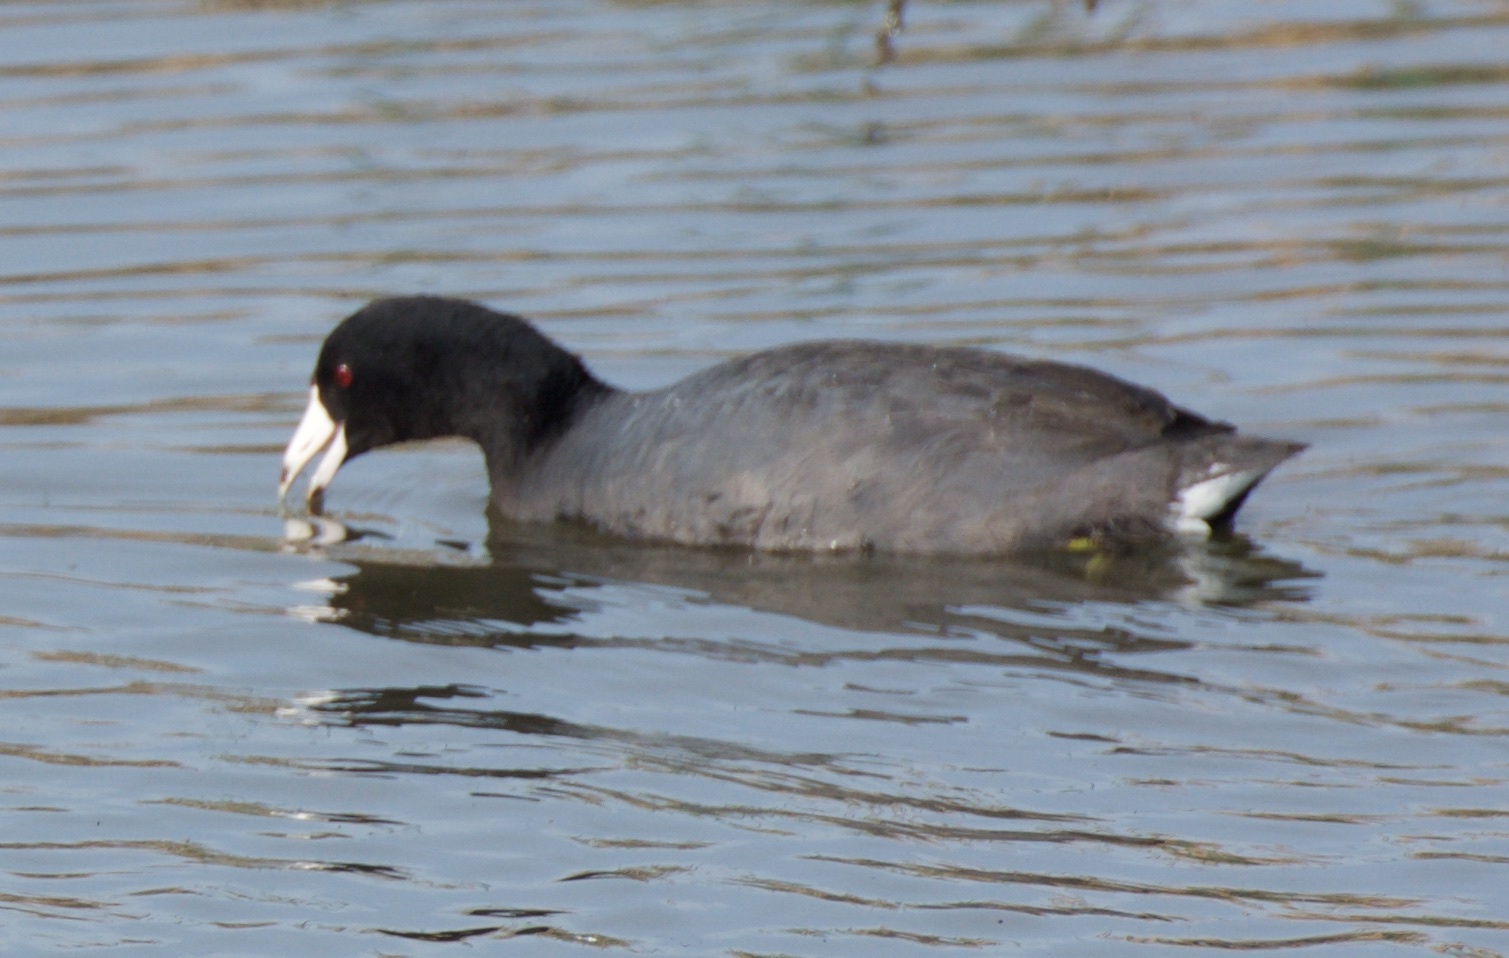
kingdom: Animalia
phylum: Chordata
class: Aves
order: Gruiformes
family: Rallidae
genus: Fulica
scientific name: Fulica americana
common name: American coot
